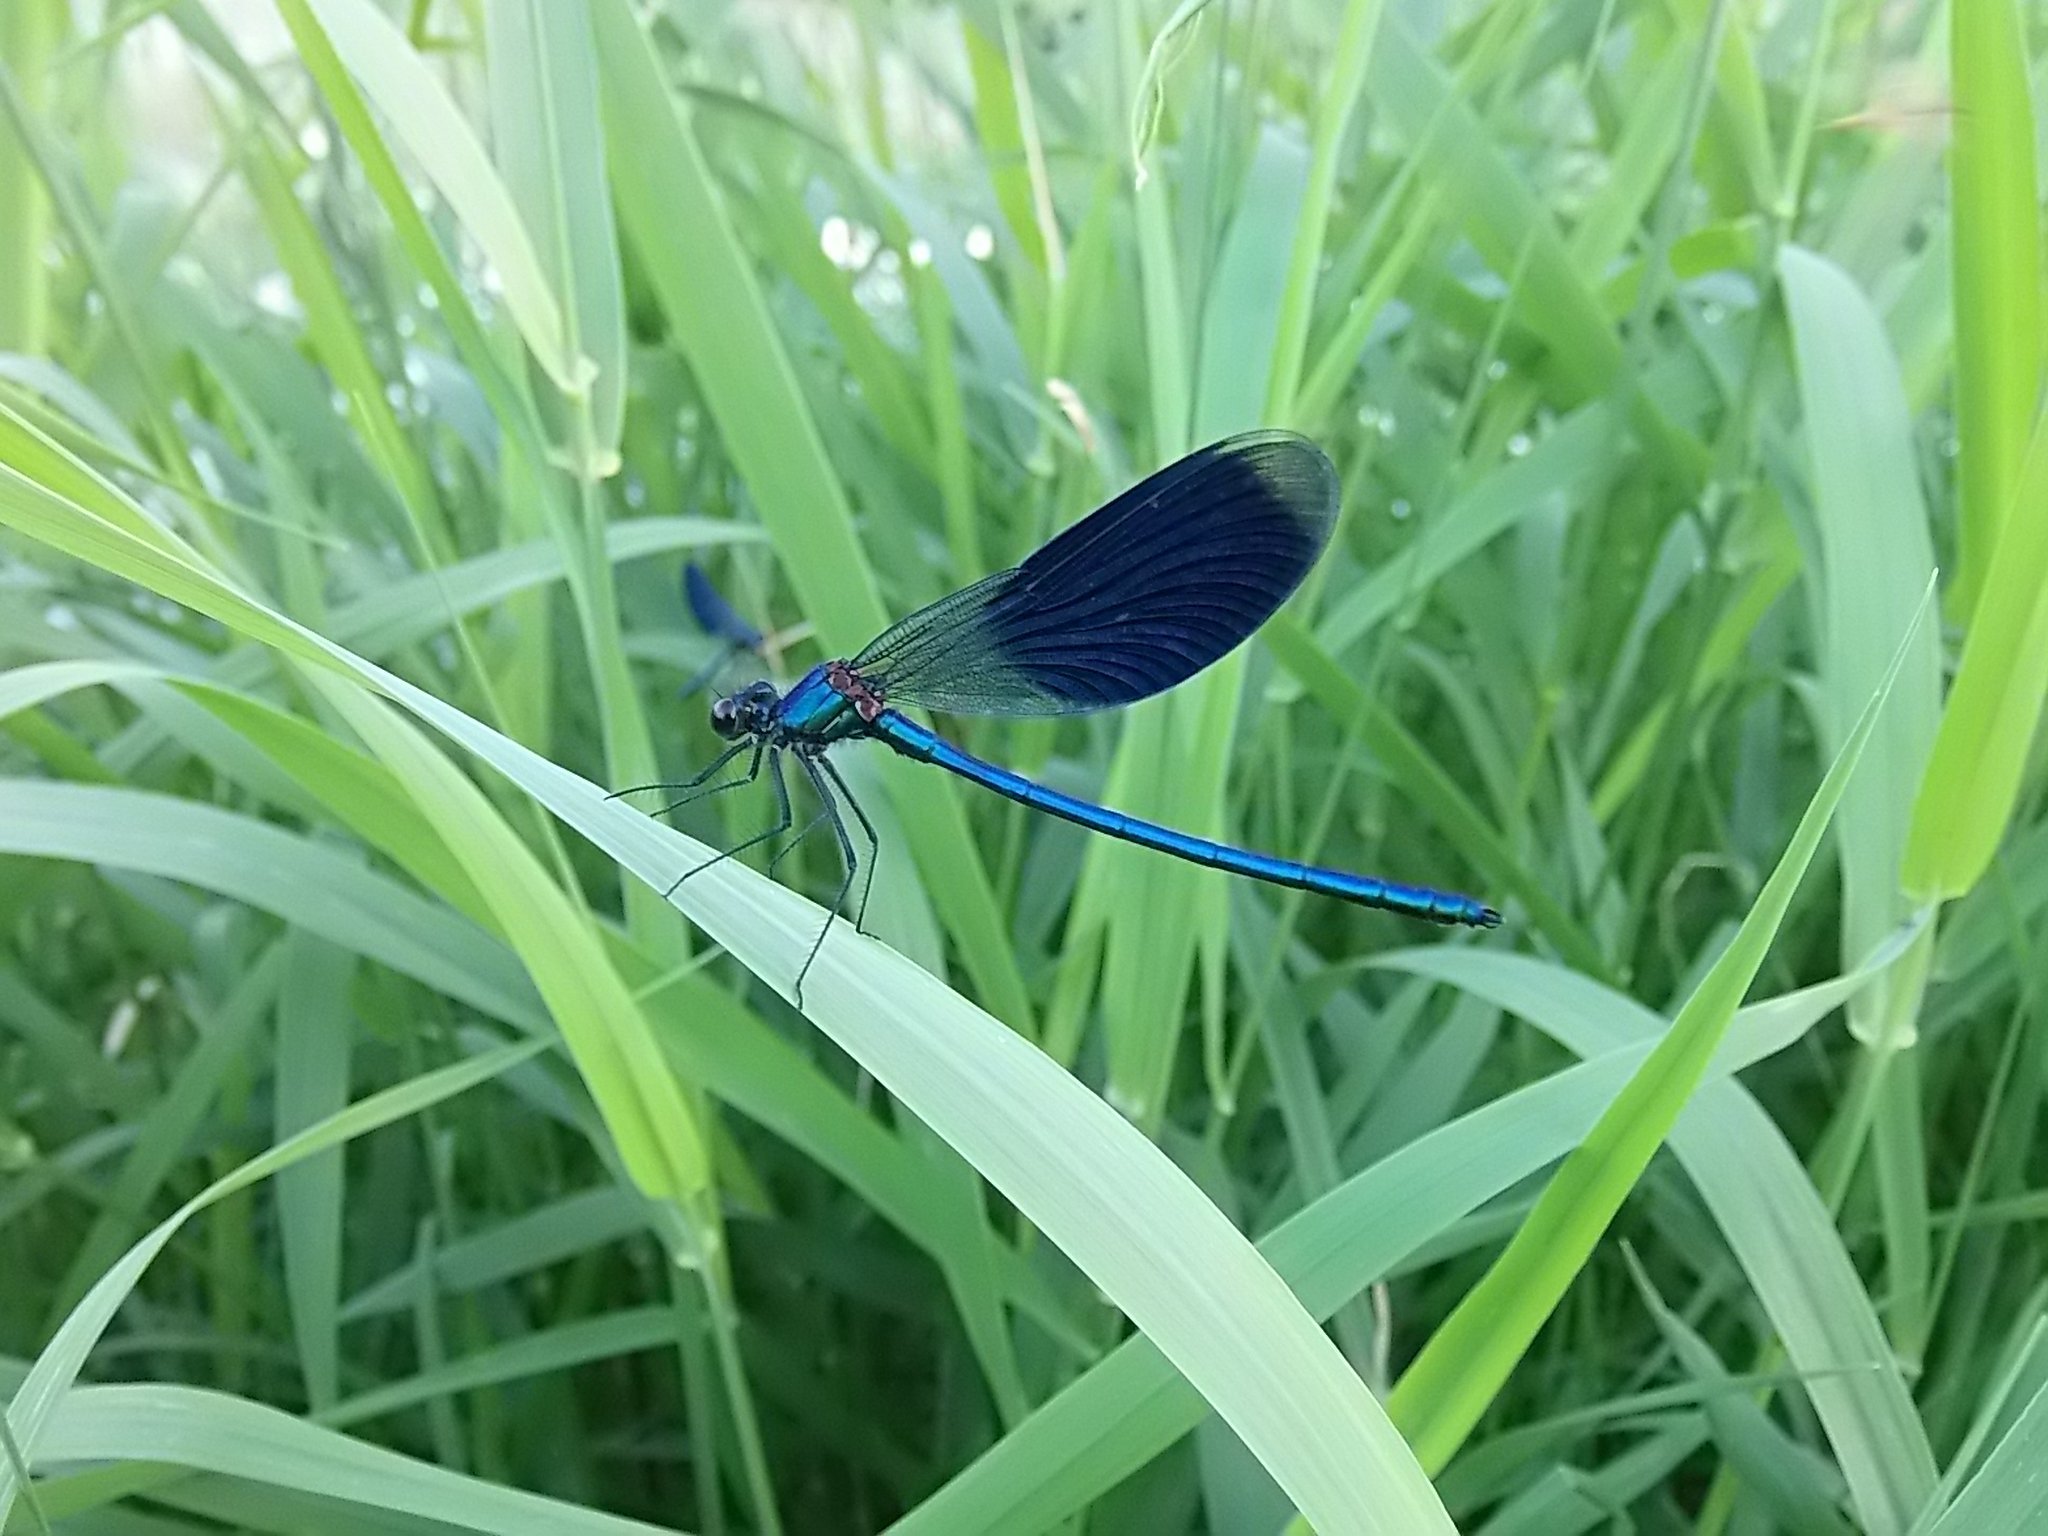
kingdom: Animalia
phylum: Arthropoda
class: Insecta
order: Odonata
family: Calopterygidae
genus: Calopteryx
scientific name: Calopteryx splendens
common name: Banded demoiselle
